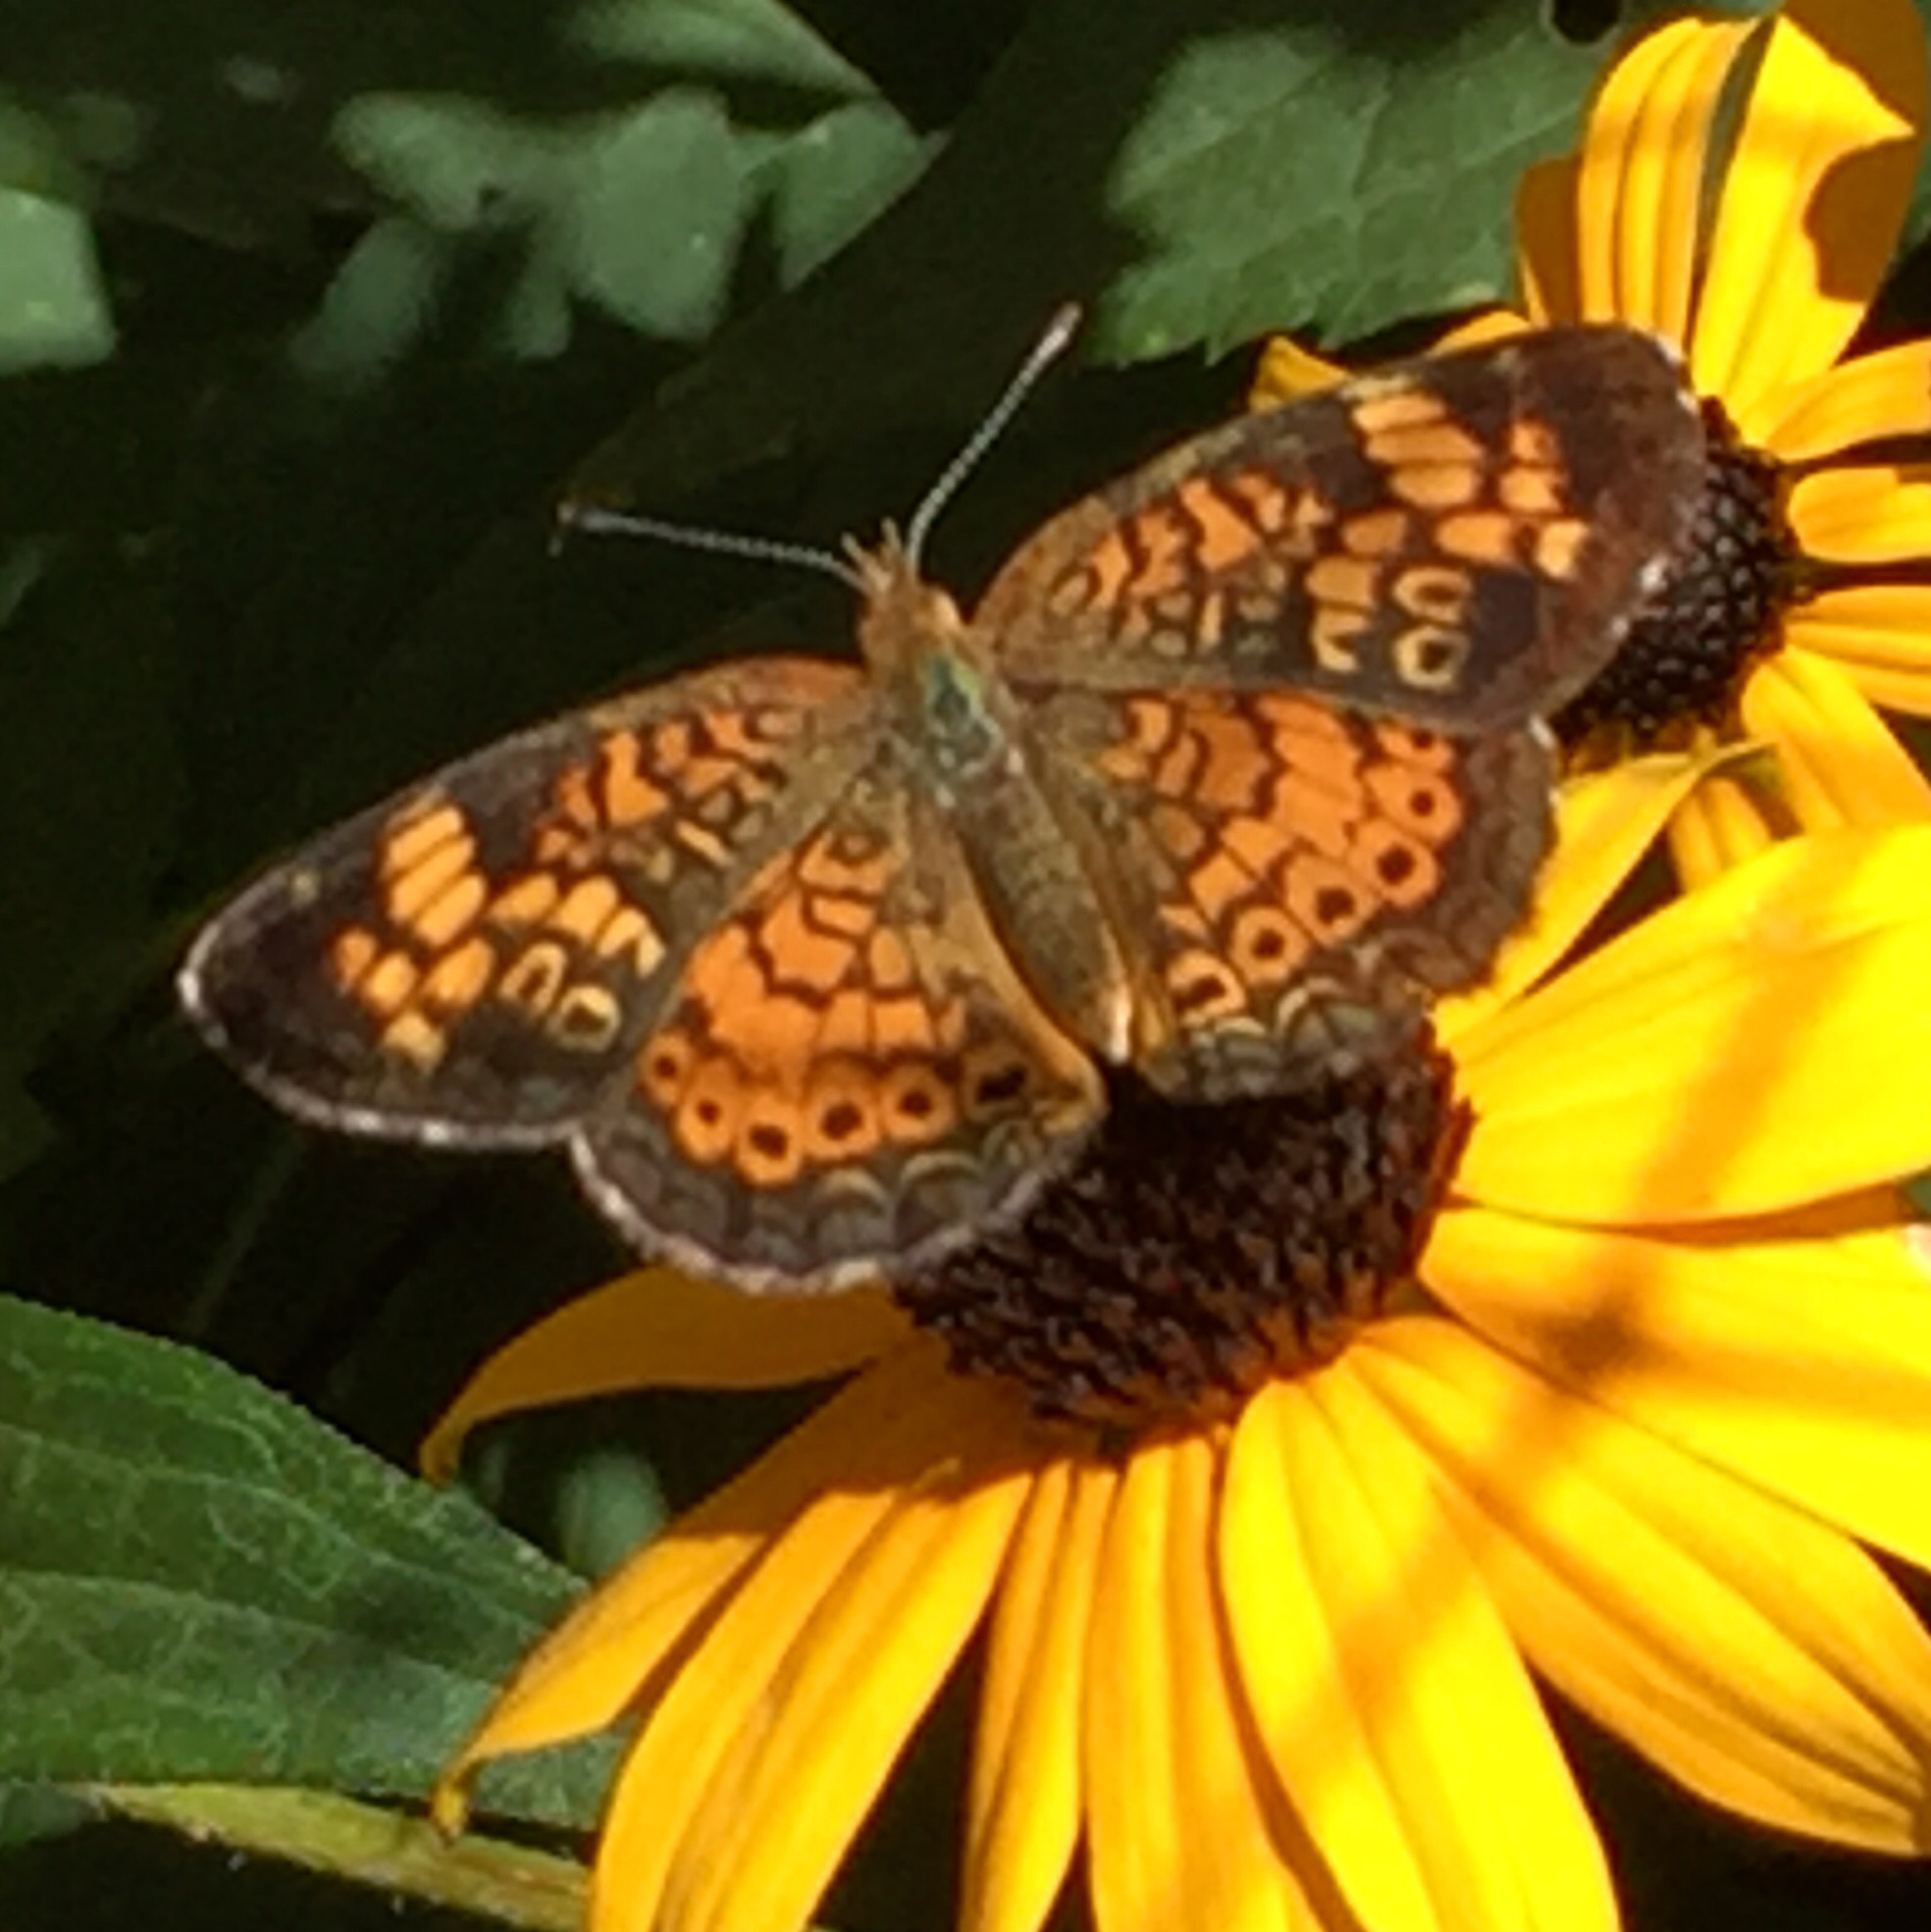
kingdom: Animalia
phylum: Arthropoda
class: Insecta
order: Lepidoptera
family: Nymphalidae
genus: Phyciodes
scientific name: Phyciodes tharos
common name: Pearl crescent
